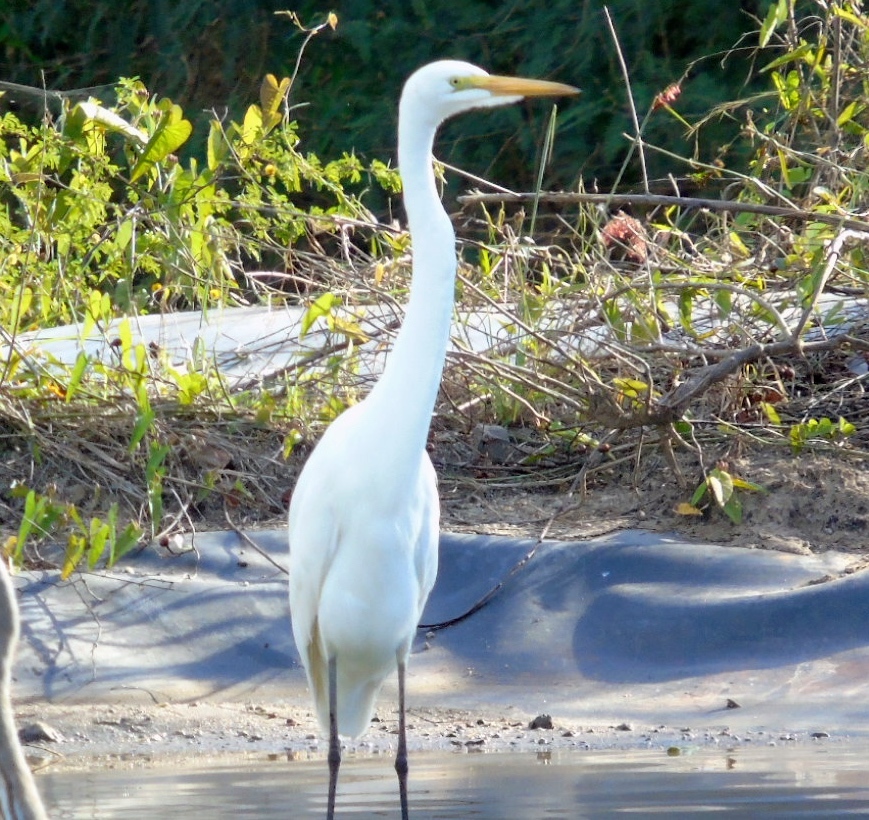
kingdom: Animalia
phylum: Chordata
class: Aves
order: Pelecaniformes
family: Ardeidae
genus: Ardea
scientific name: Ardea alba
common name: Great egret
